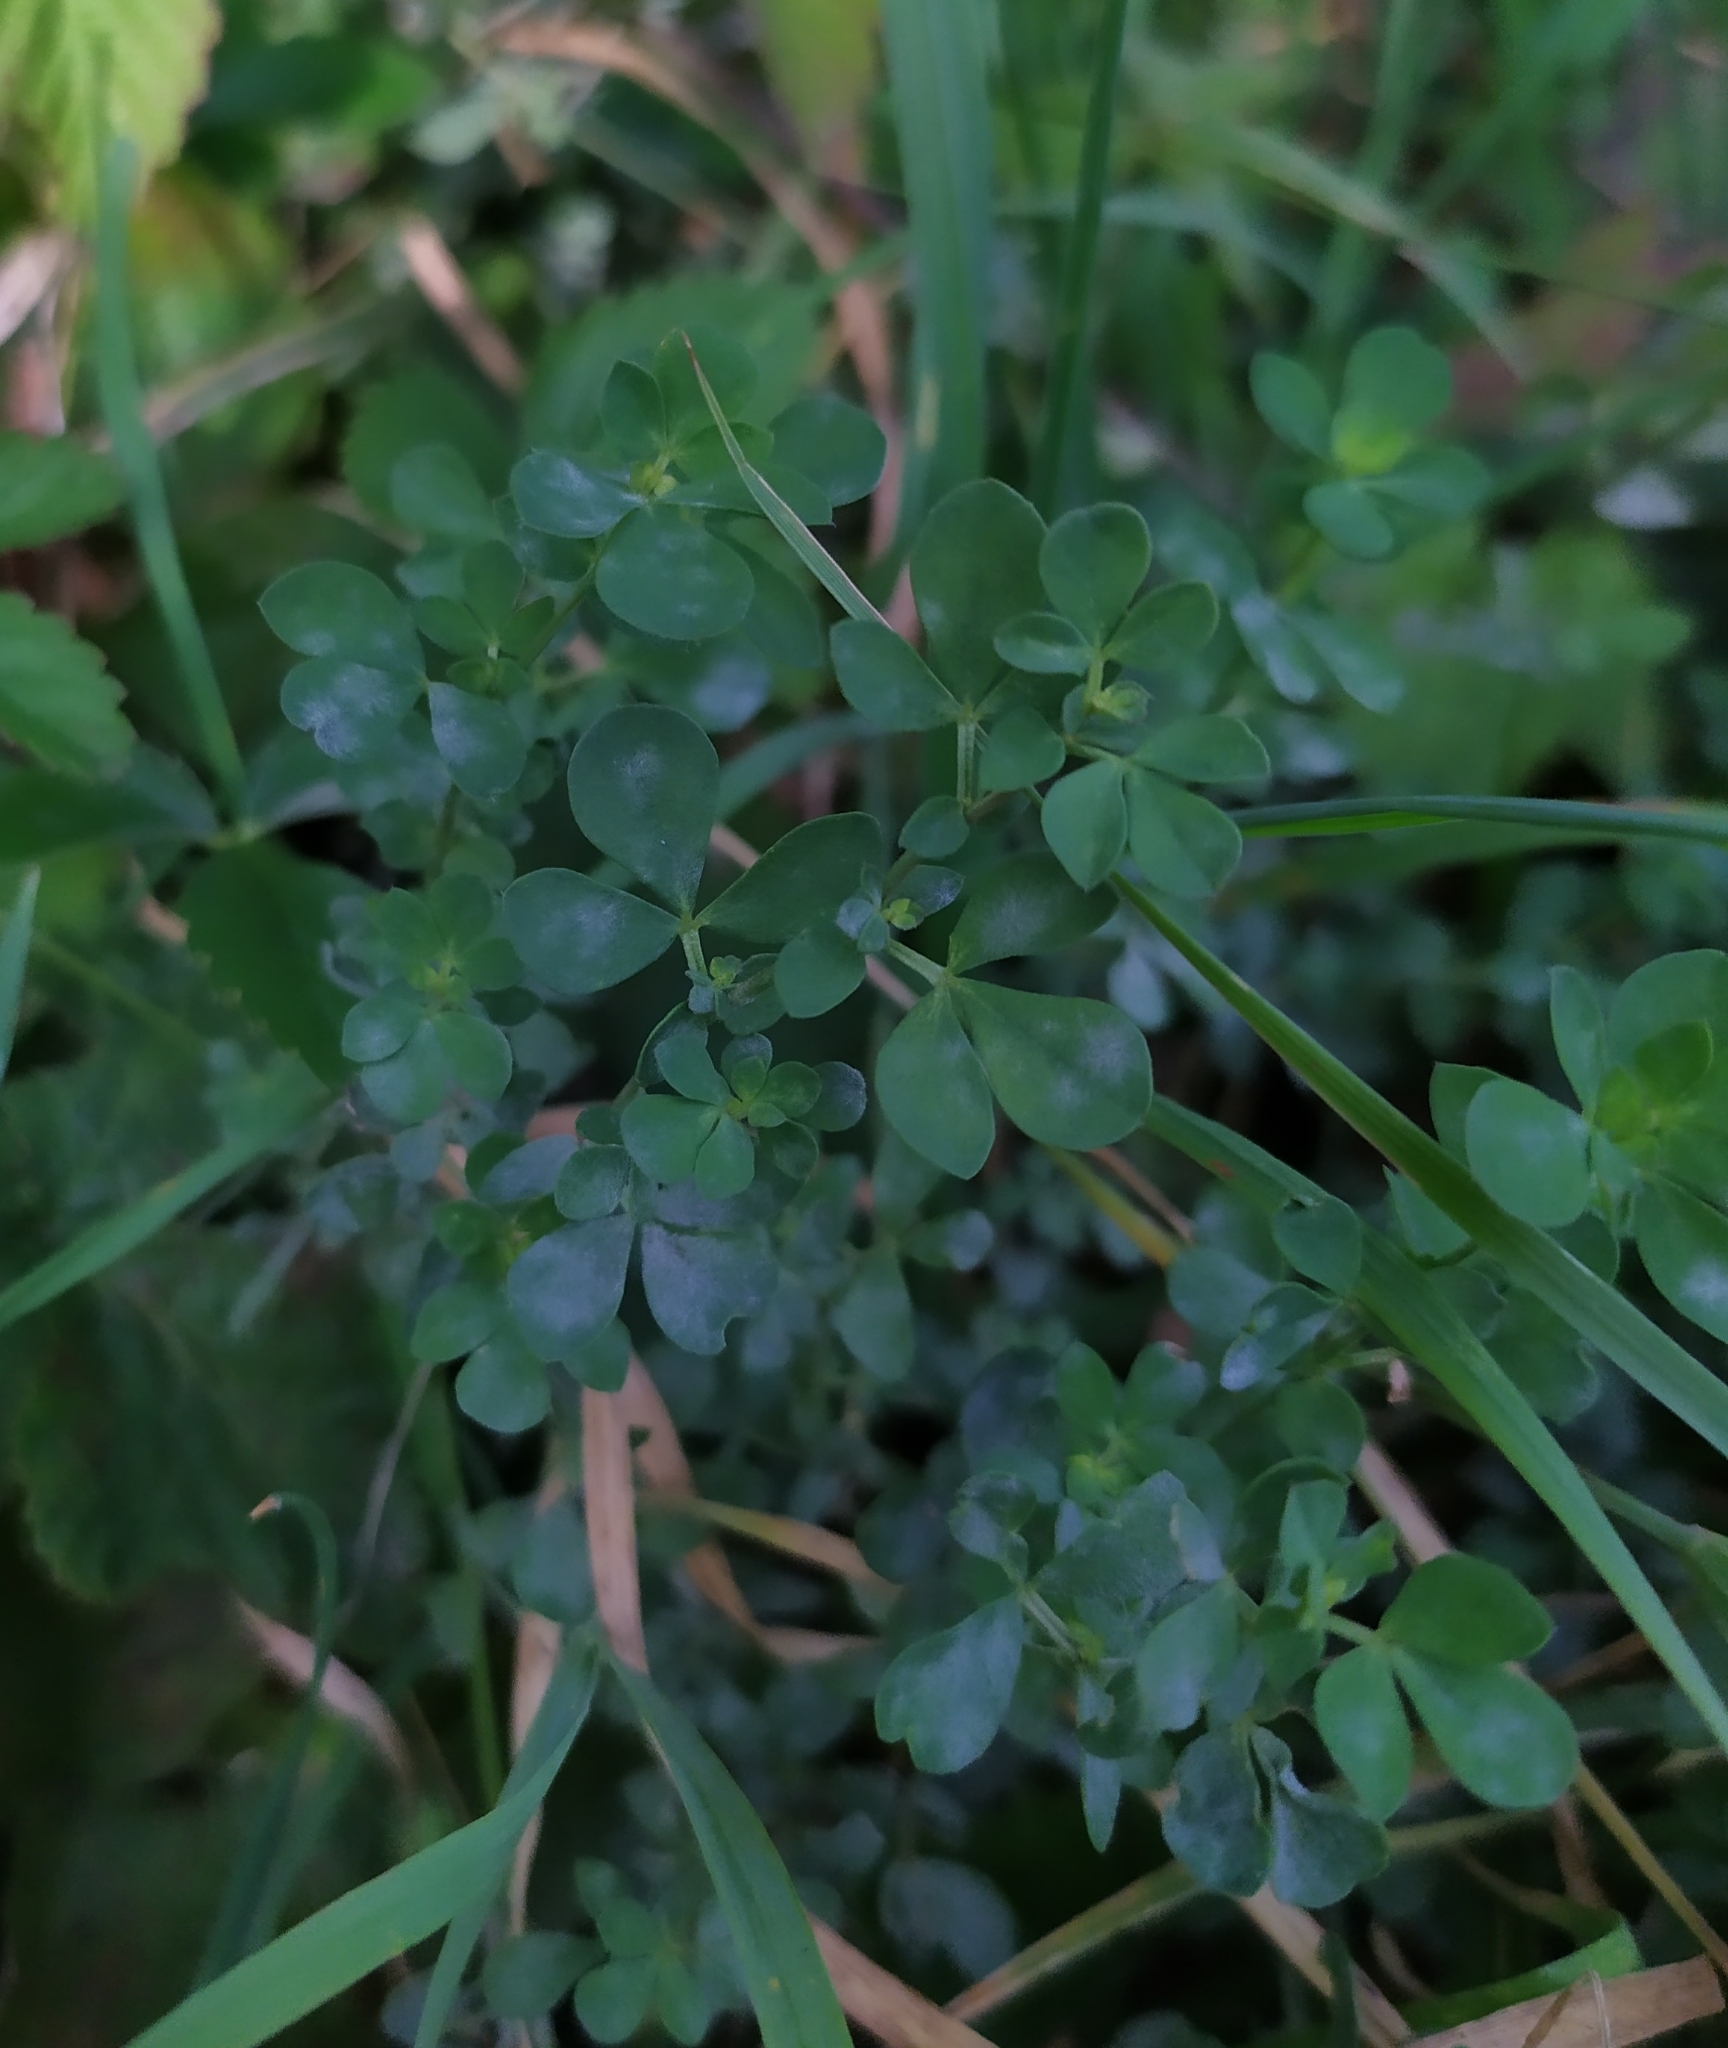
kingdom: Plantae
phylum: Tracheophyta
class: Magnoliopsida
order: Fabales
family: Fabaceae
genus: Lotus
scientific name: Lotus corniculatus
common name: Common bird's-foot-trefoil
